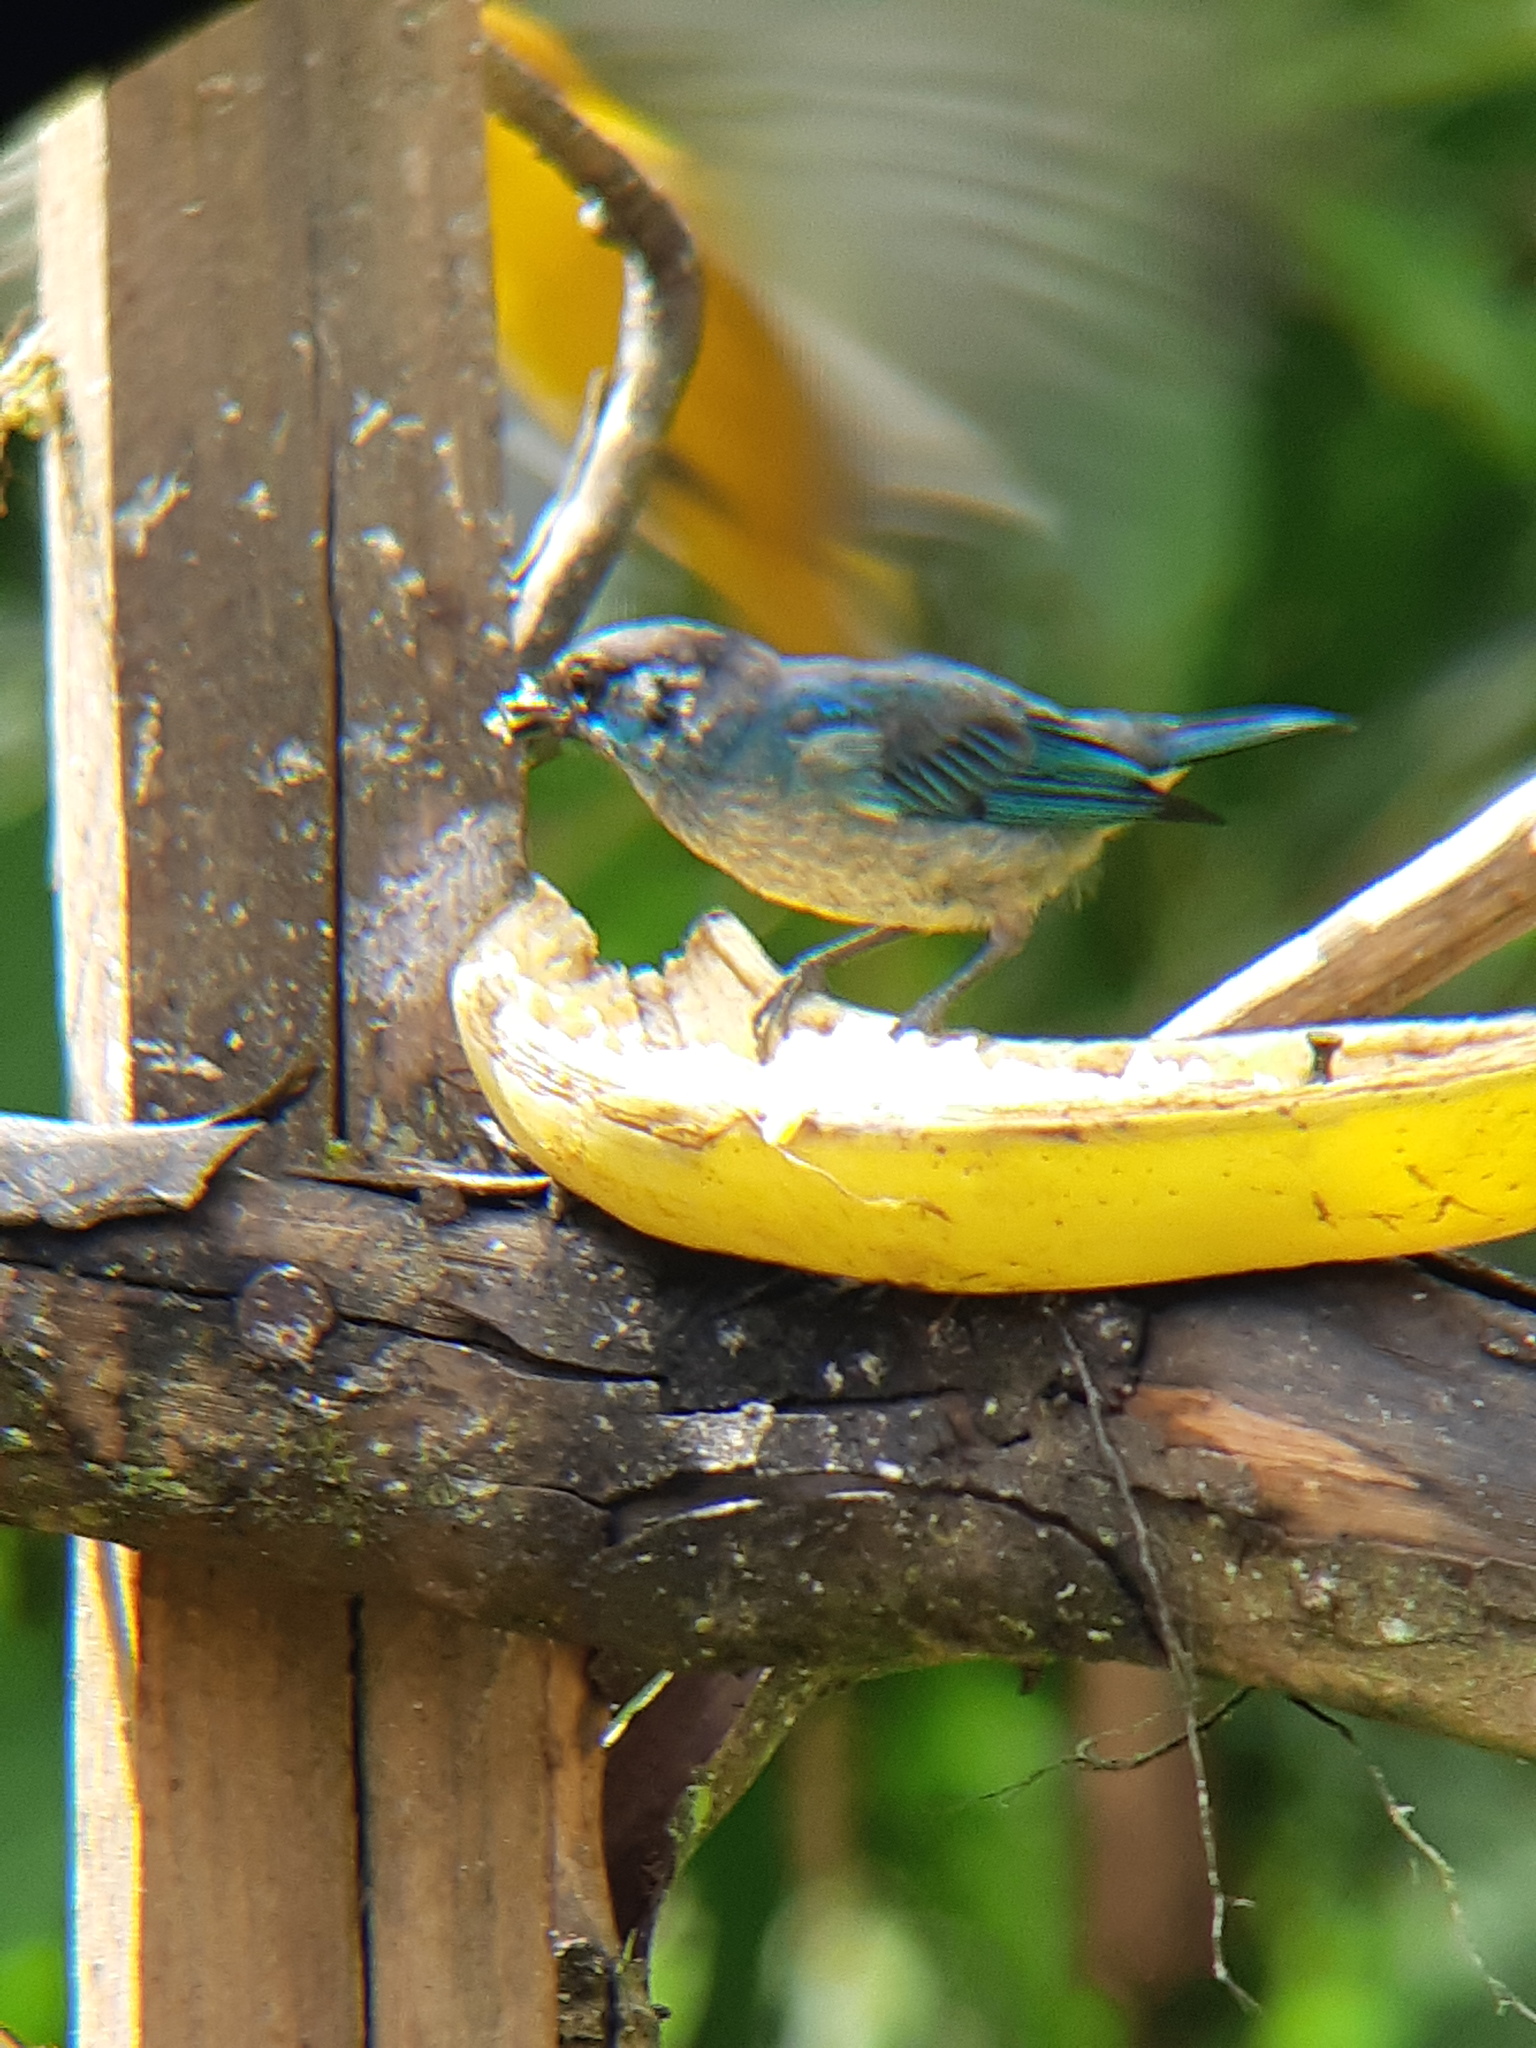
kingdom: Animalia
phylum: Chordata
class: Aves
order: Passeriformes
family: Thraupidae
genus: Chalcothraupis
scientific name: Chalcothraupis ruficervix
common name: Golden-naped tanager
